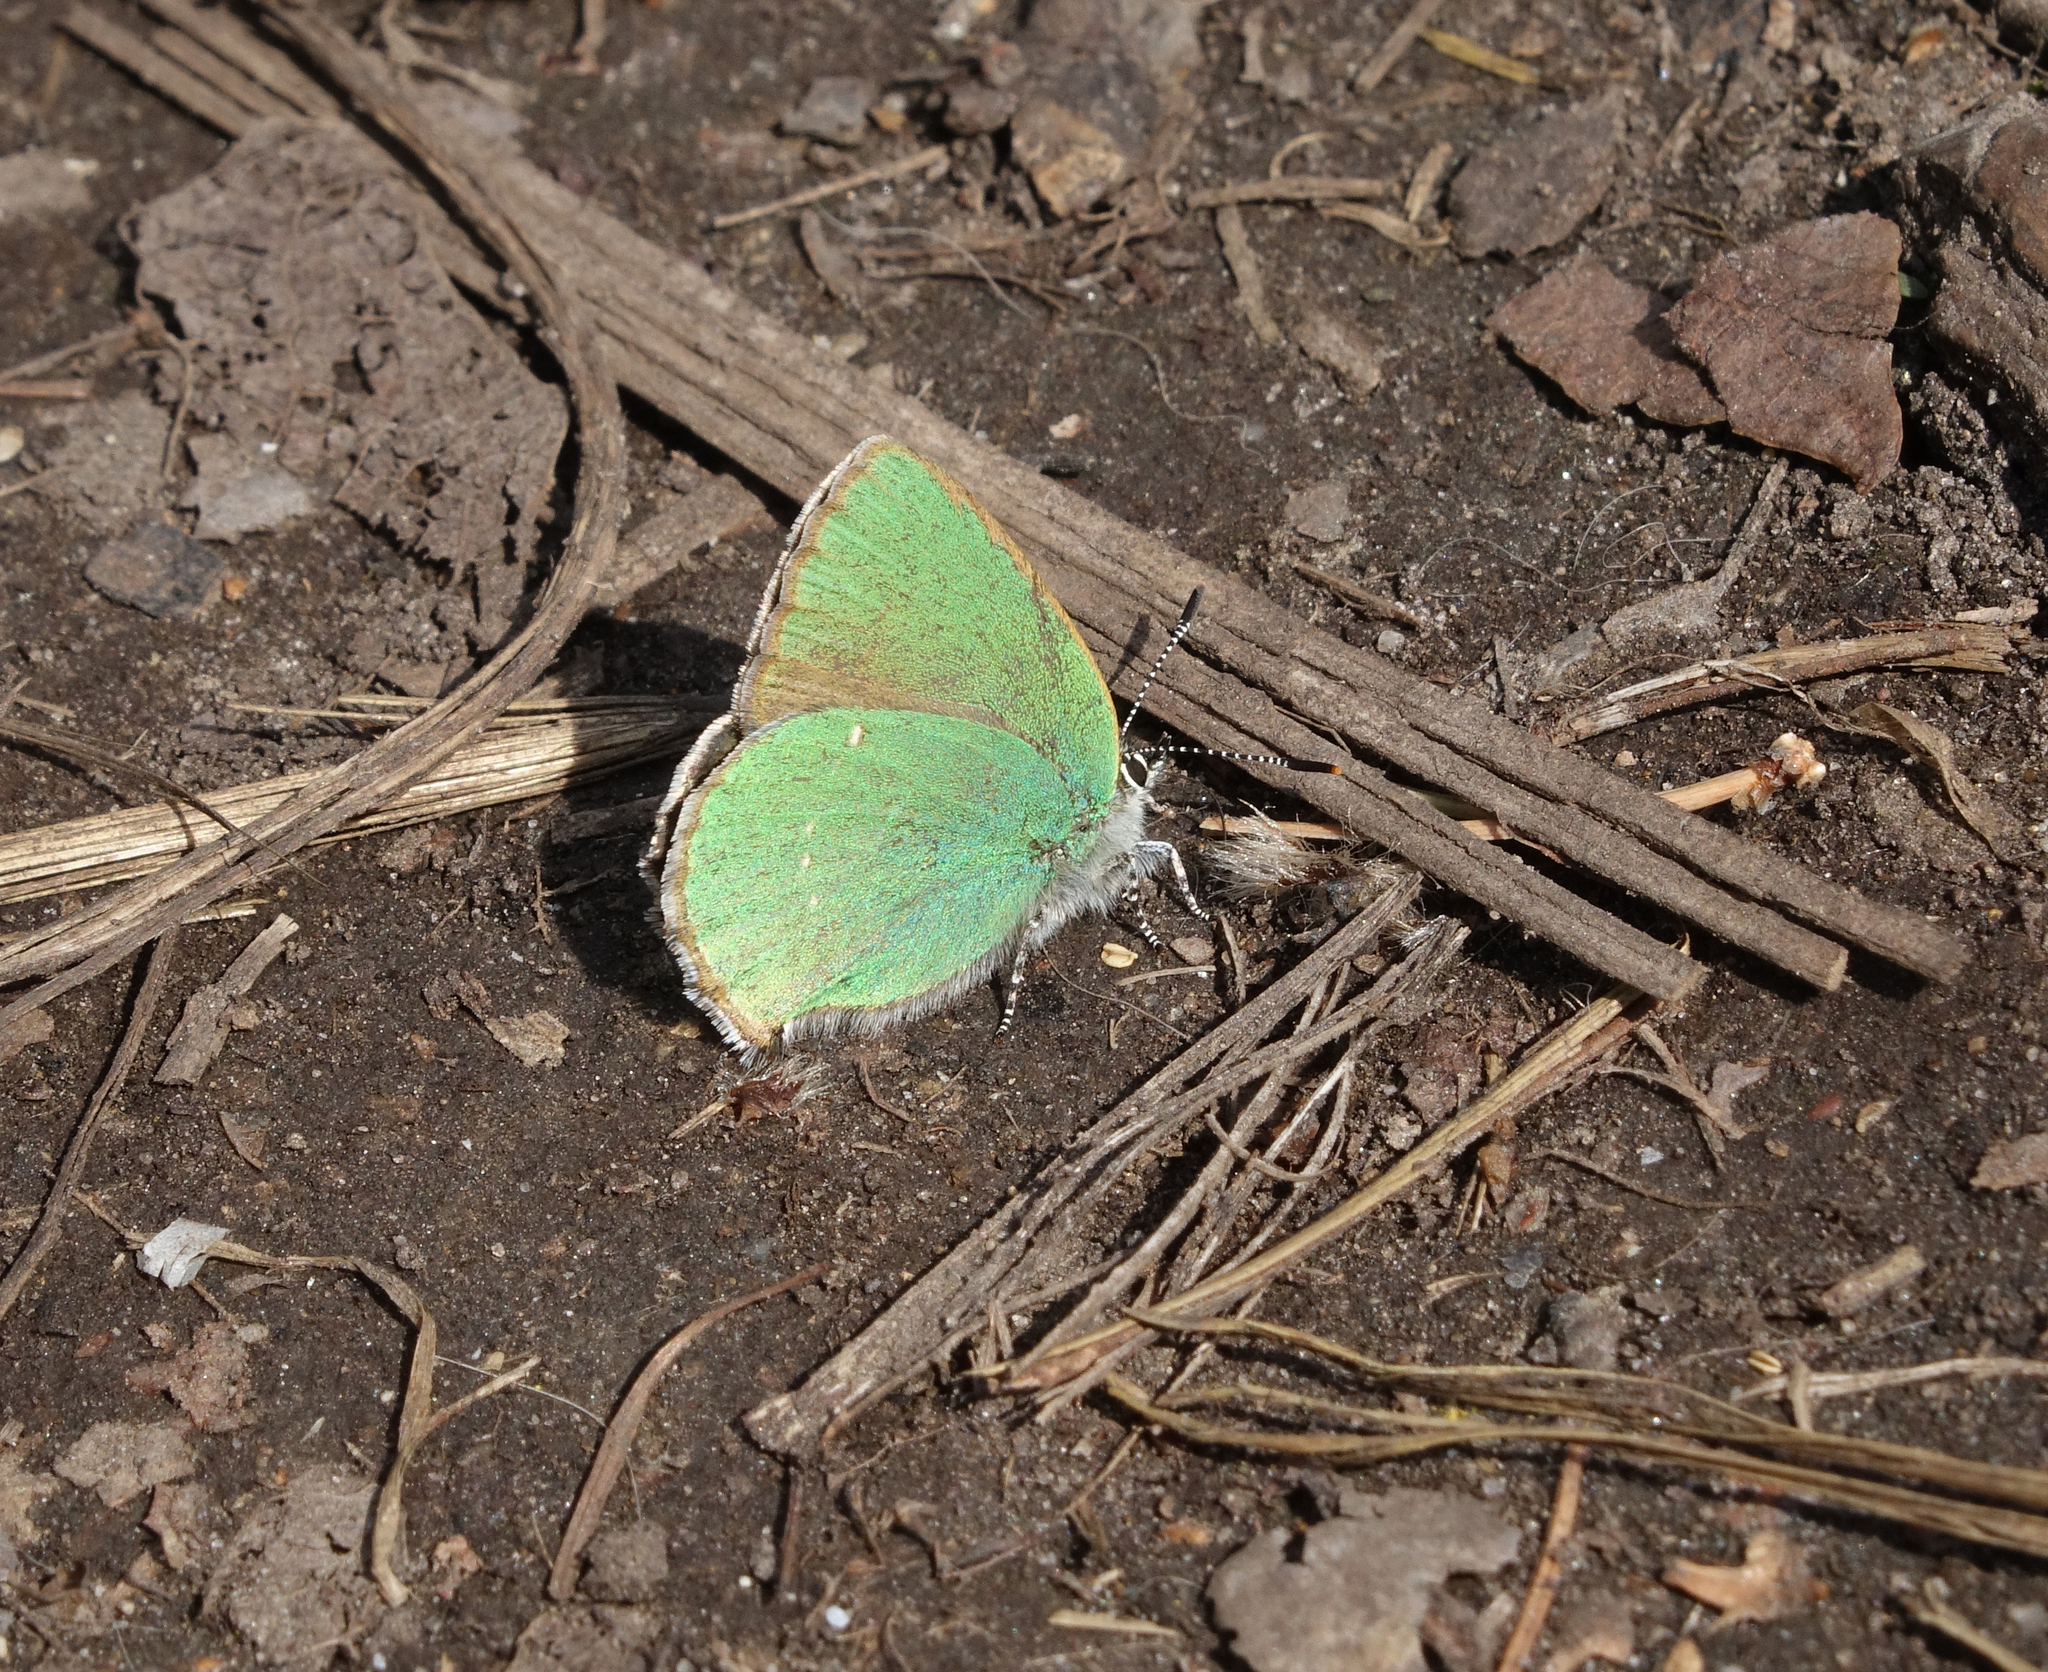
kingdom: Animalia
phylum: Arthropoda
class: Insecta
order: Lepidoptera
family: Lycaenidae
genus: Callophrys
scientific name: Callophrys rubi
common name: Green hairstreak
